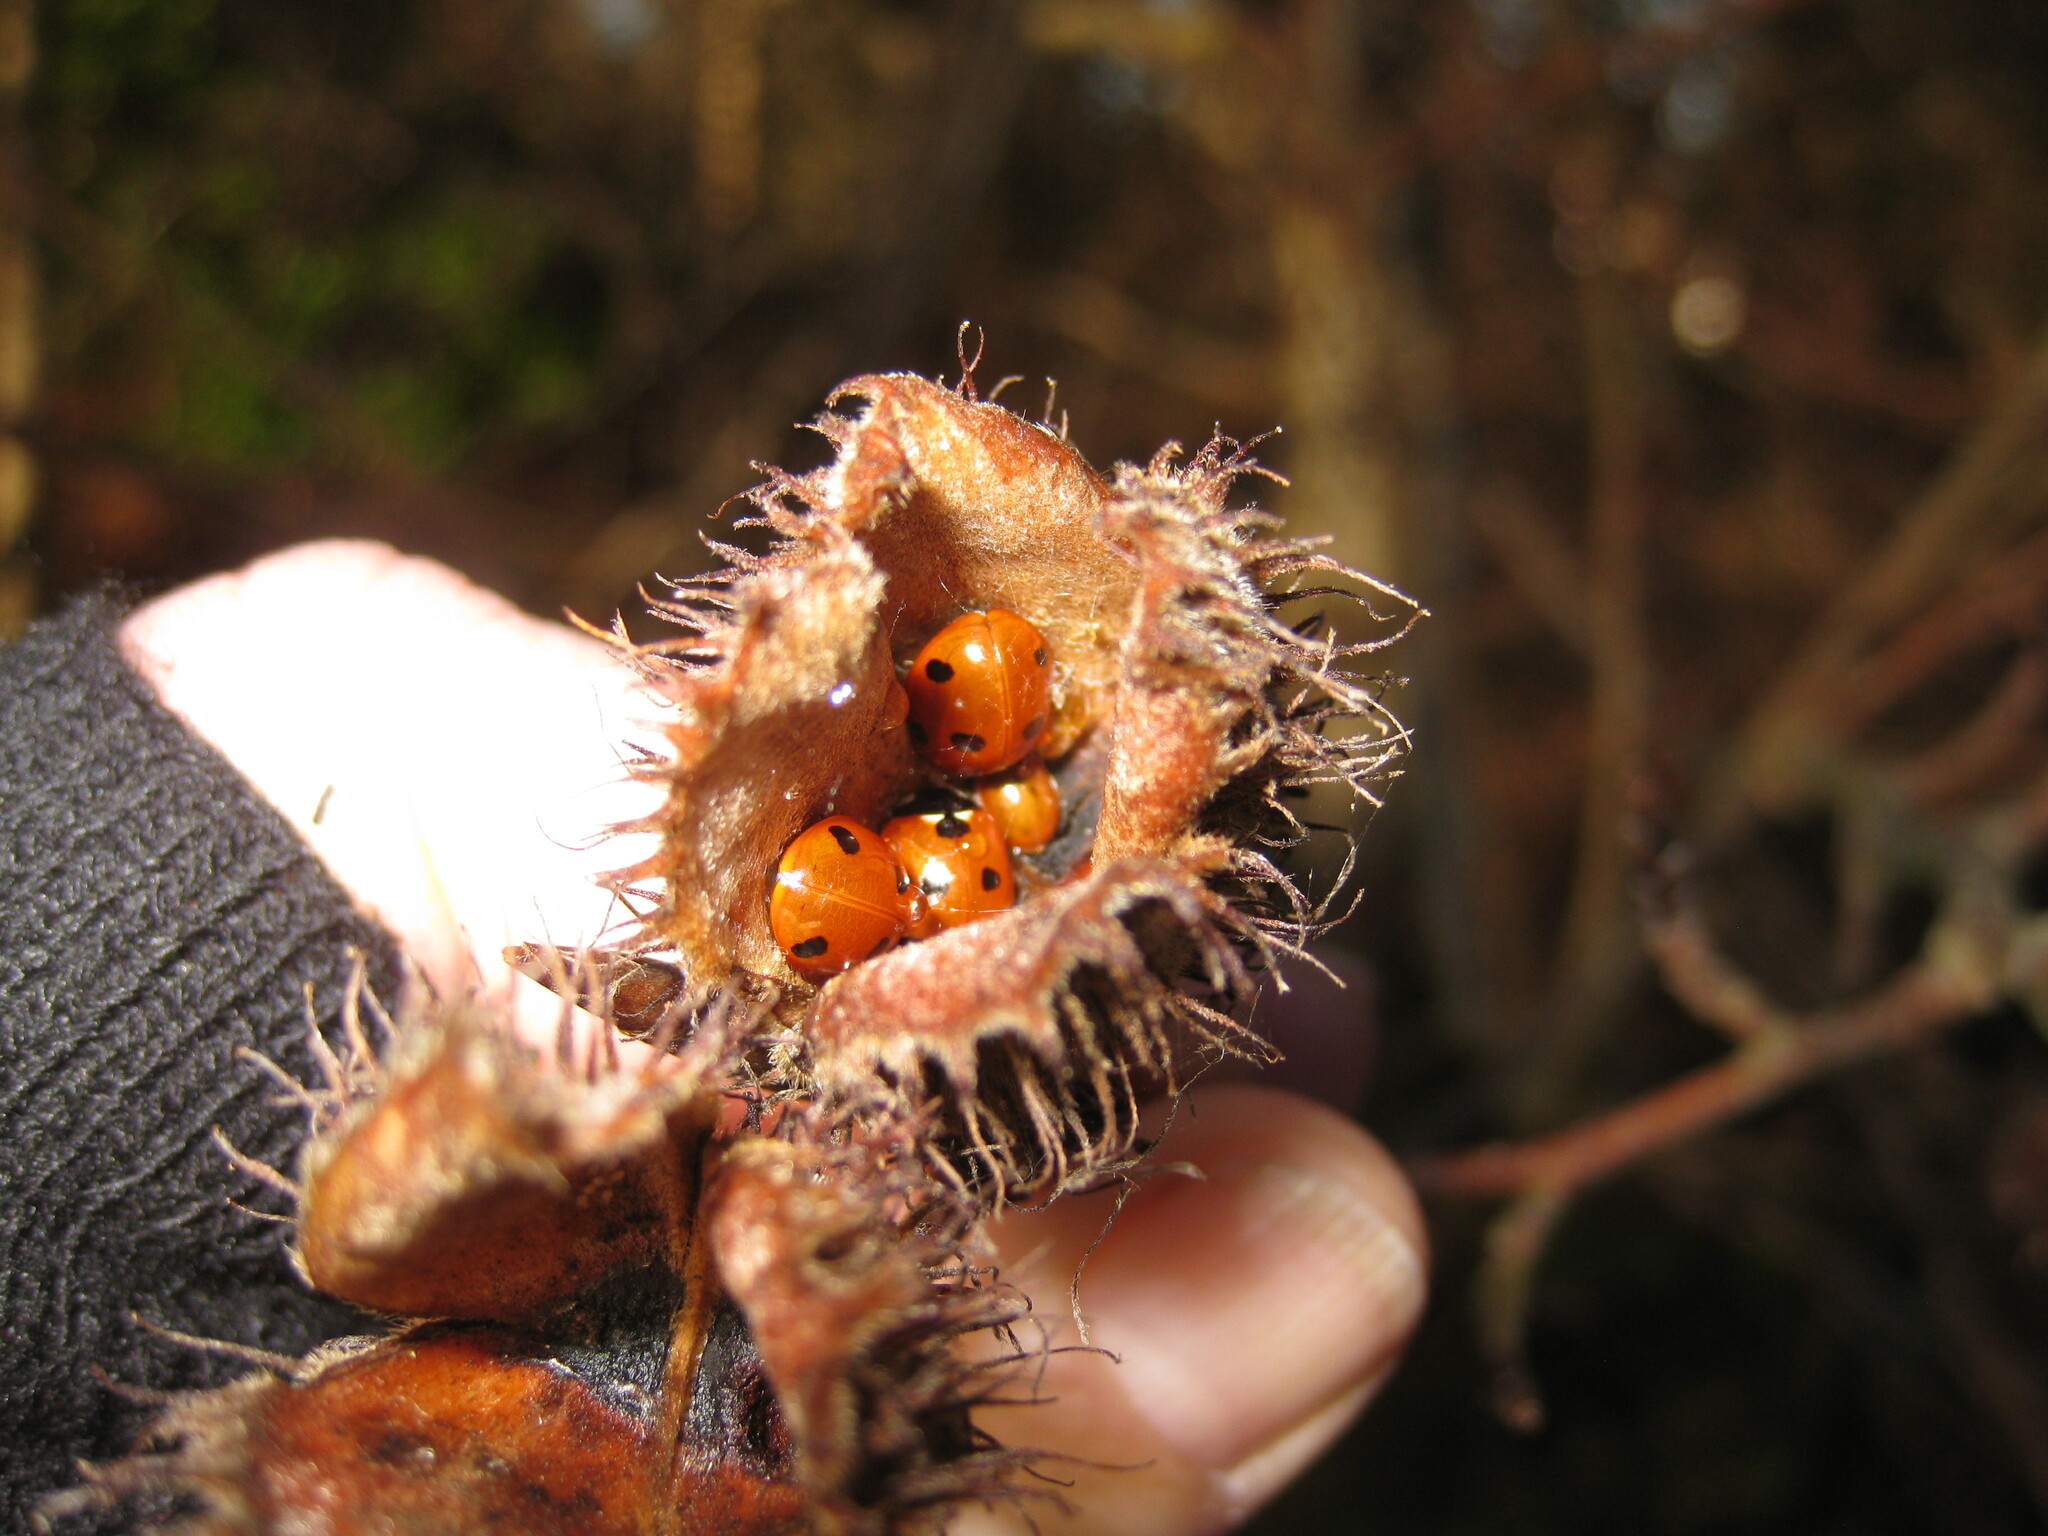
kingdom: Animalia
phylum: Arthropoda
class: Insecta
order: Coleoptera
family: Coccinellidae
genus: Coccinella
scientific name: Coccinella septempunctata
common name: Sevenspotted lady beetle
